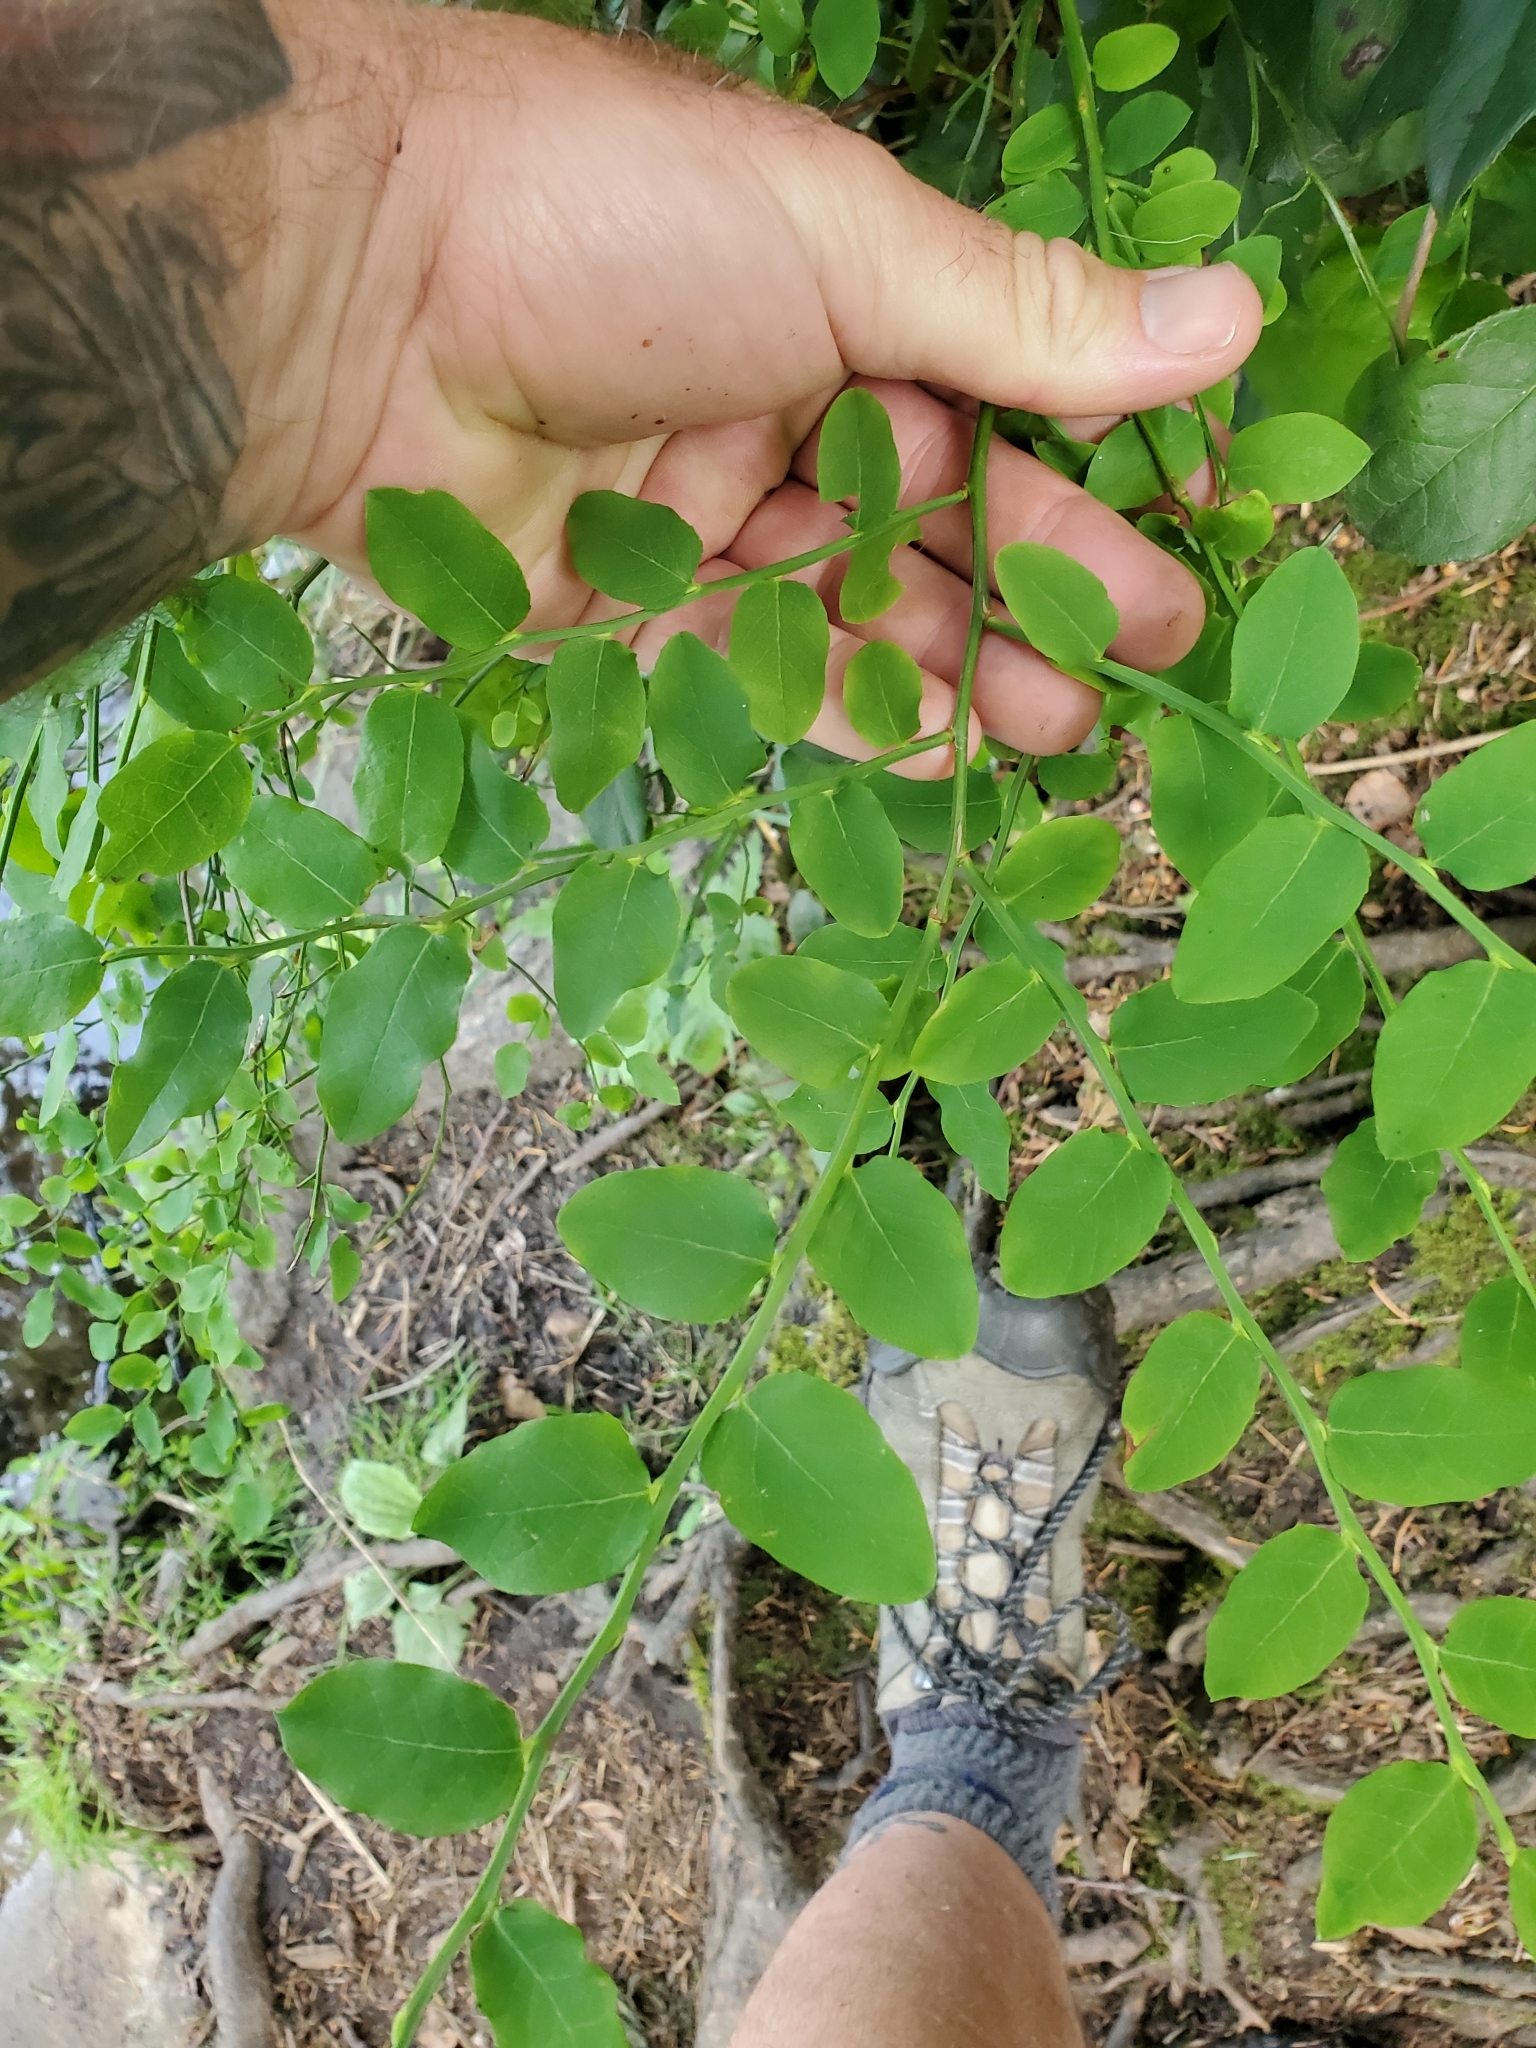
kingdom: Plantae
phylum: Tracheophyta
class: Magnoliopsida
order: Ericales
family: Ericaceae
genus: Vaccinium
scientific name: Vaccinium parvifolium
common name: Red-huckleberry
